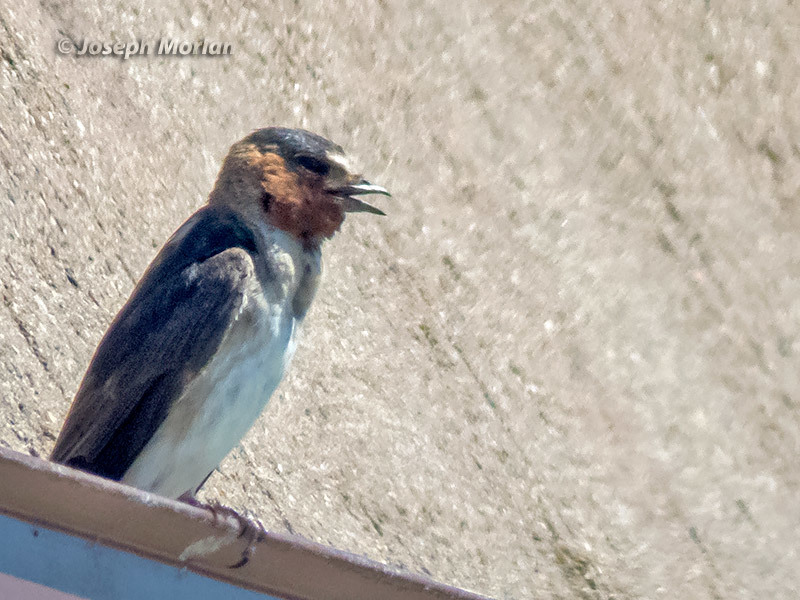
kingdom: Animalia
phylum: Chordata
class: Aves
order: Passeriformes
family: Hirundinidae
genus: Petrochelidon
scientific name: Petrochelidon pyrrhonota
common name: American cliff swallow
